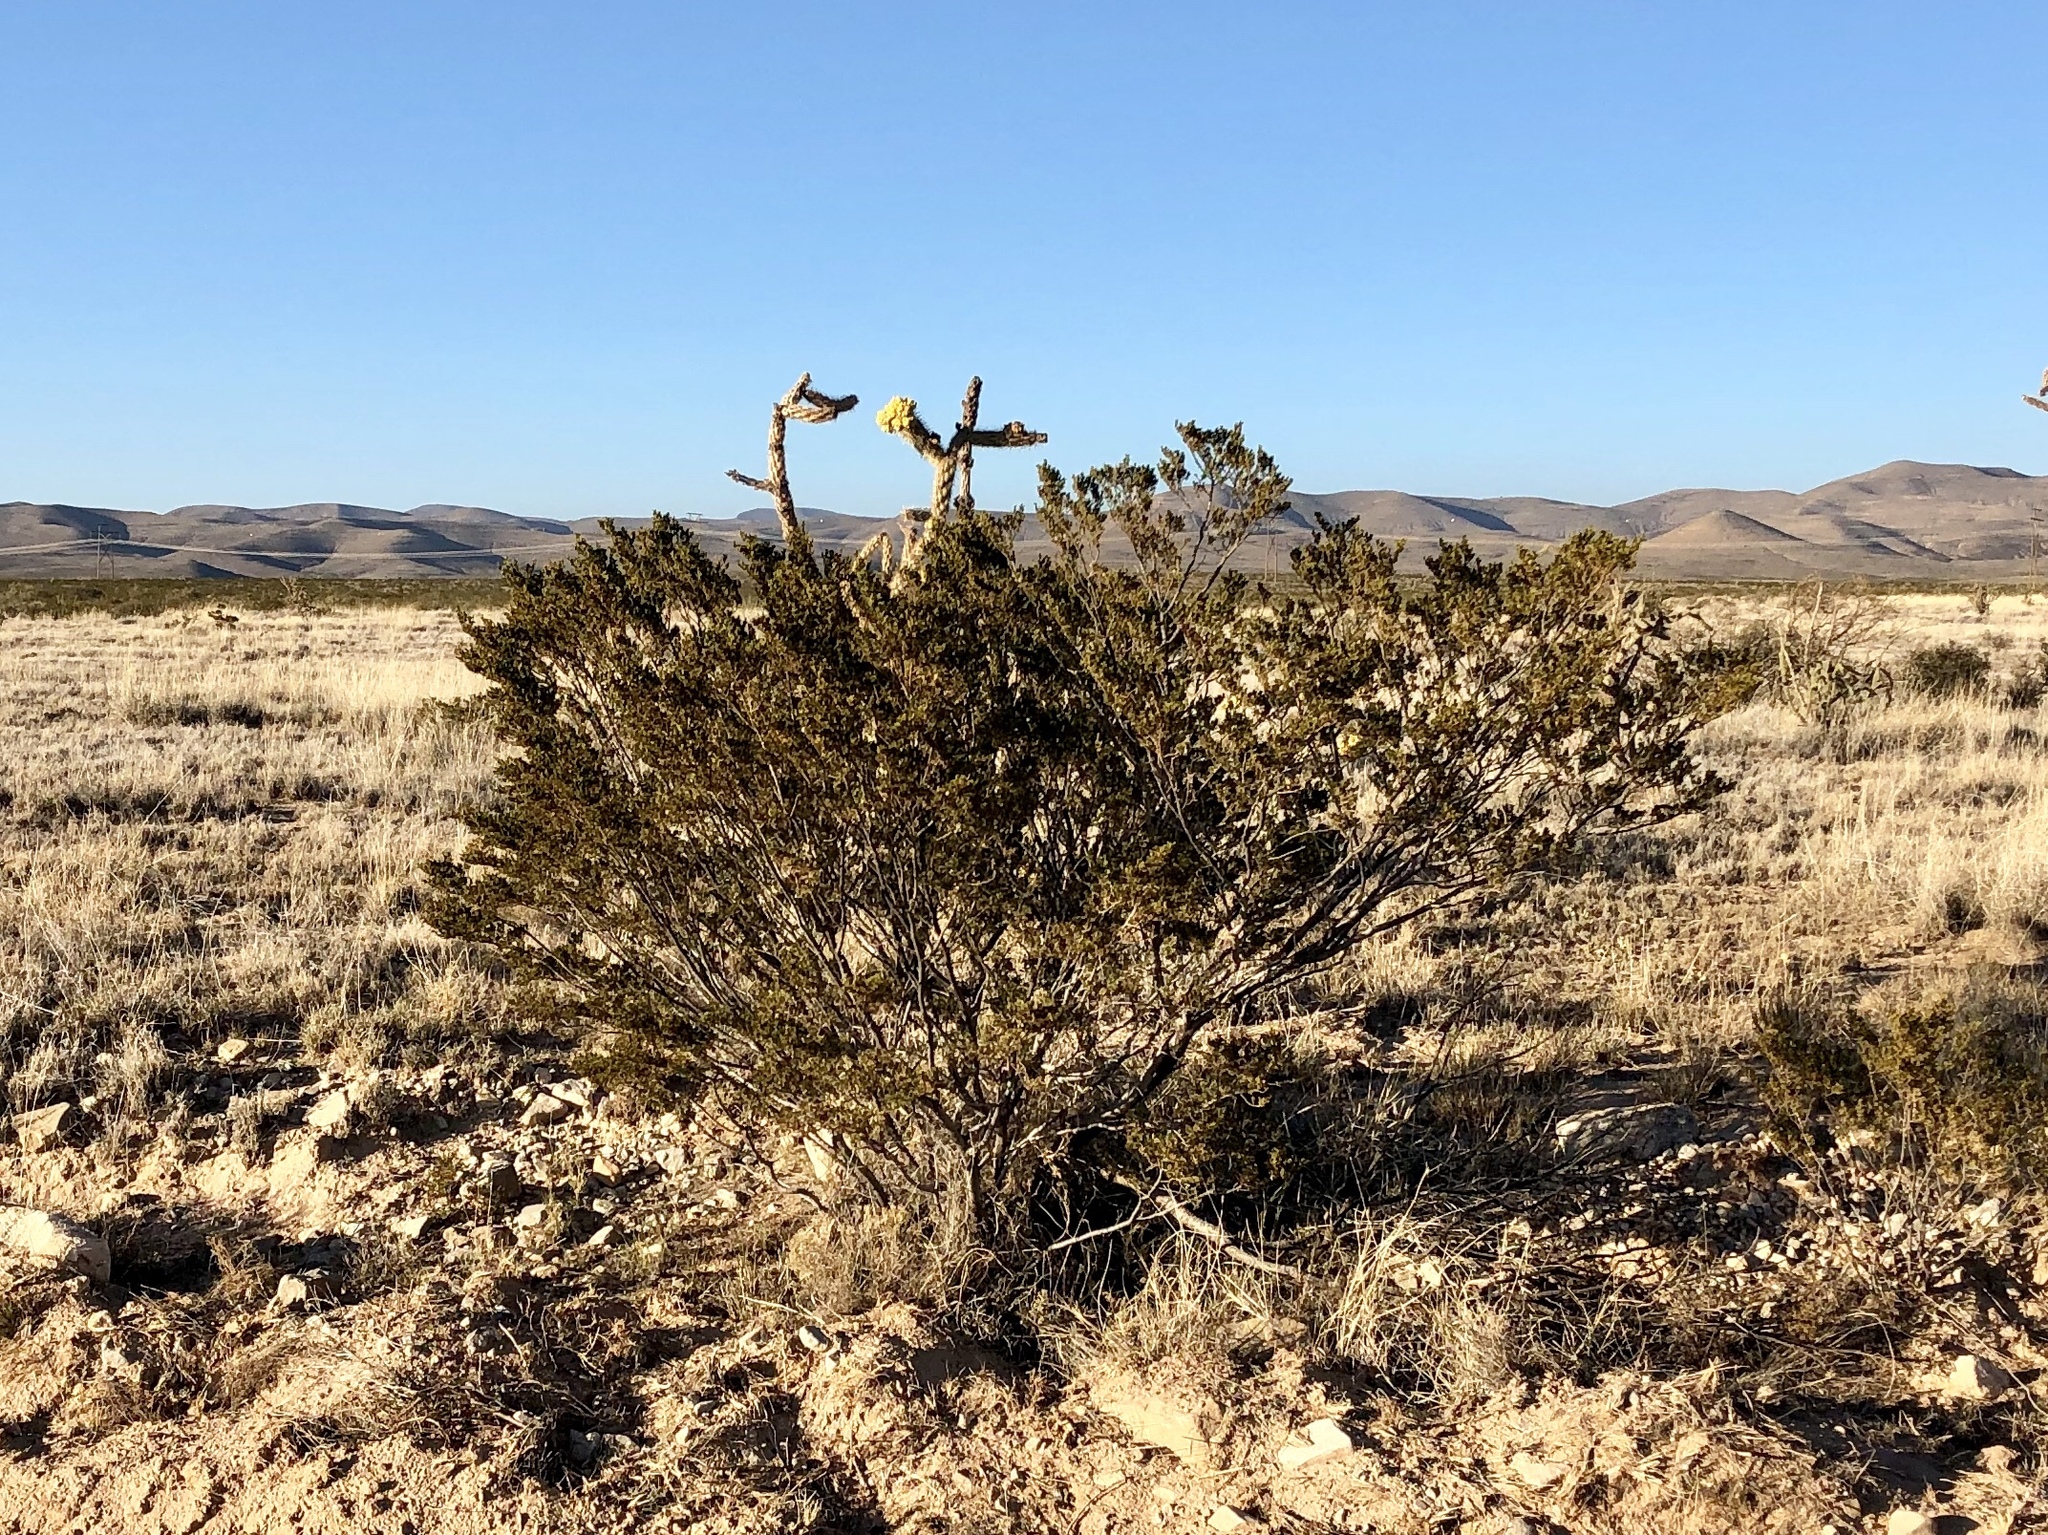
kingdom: Plantae
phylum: Tracheophyta
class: Magnoliopsida
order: Zygophyllales
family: Zygophyllaceae
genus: Larrea
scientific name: Larrea tridentata
